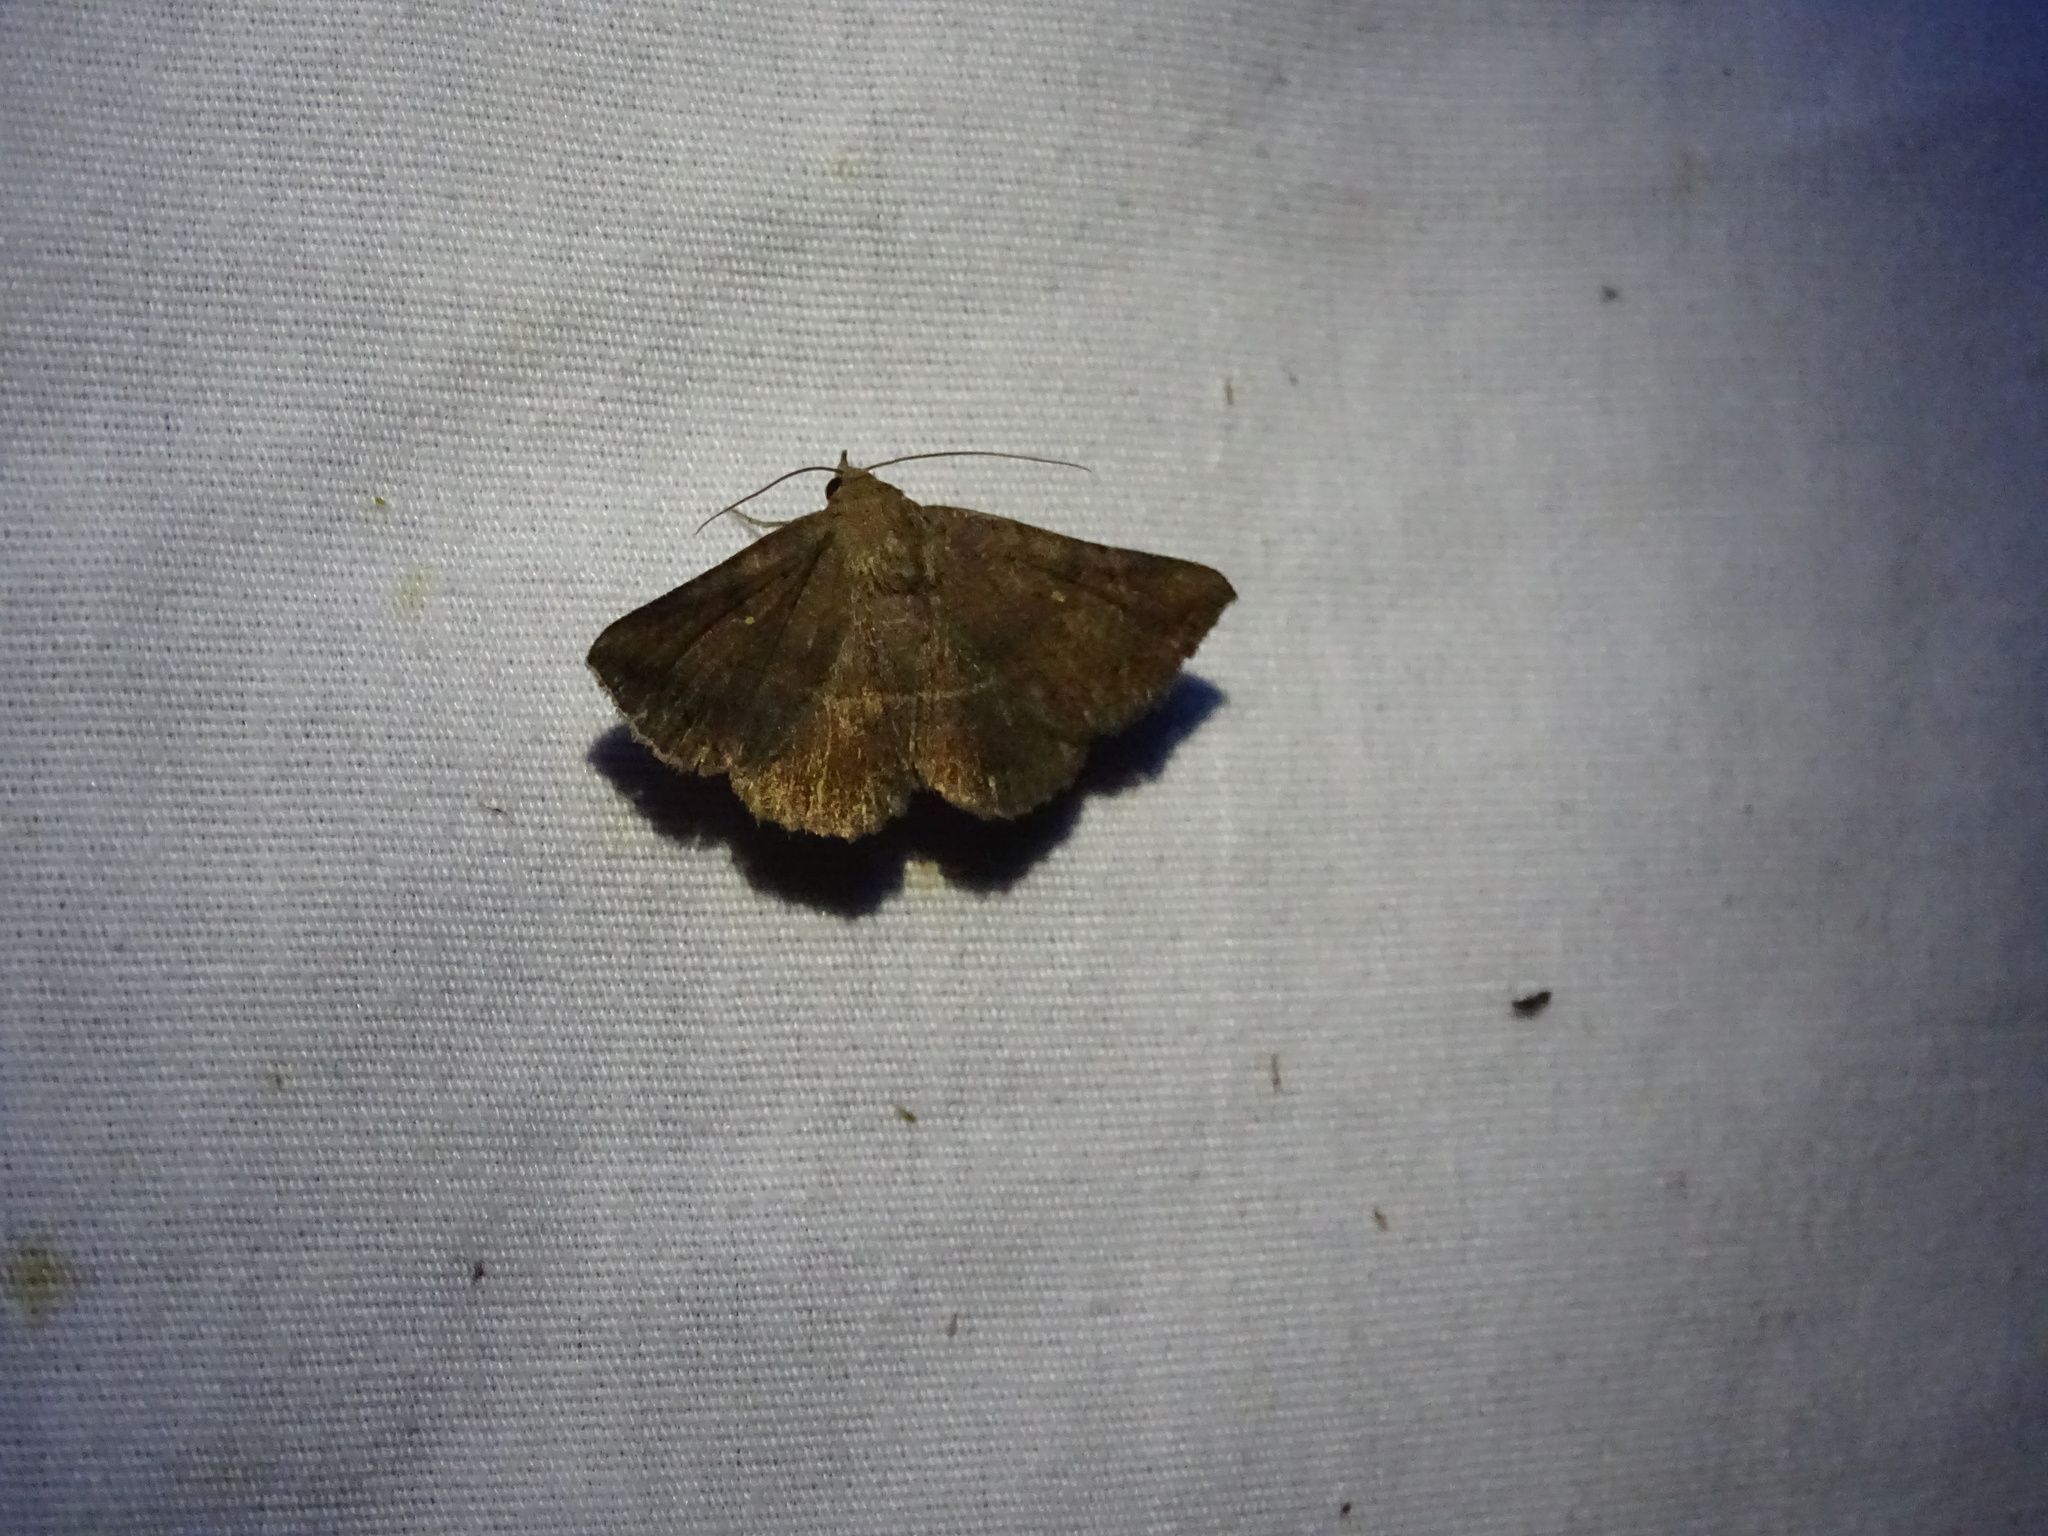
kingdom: Animalia
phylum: Arthropoda
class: Insecta
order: Lepidoptera
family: Erebidae
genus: Lesmone
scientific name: Lesmone detrahens
